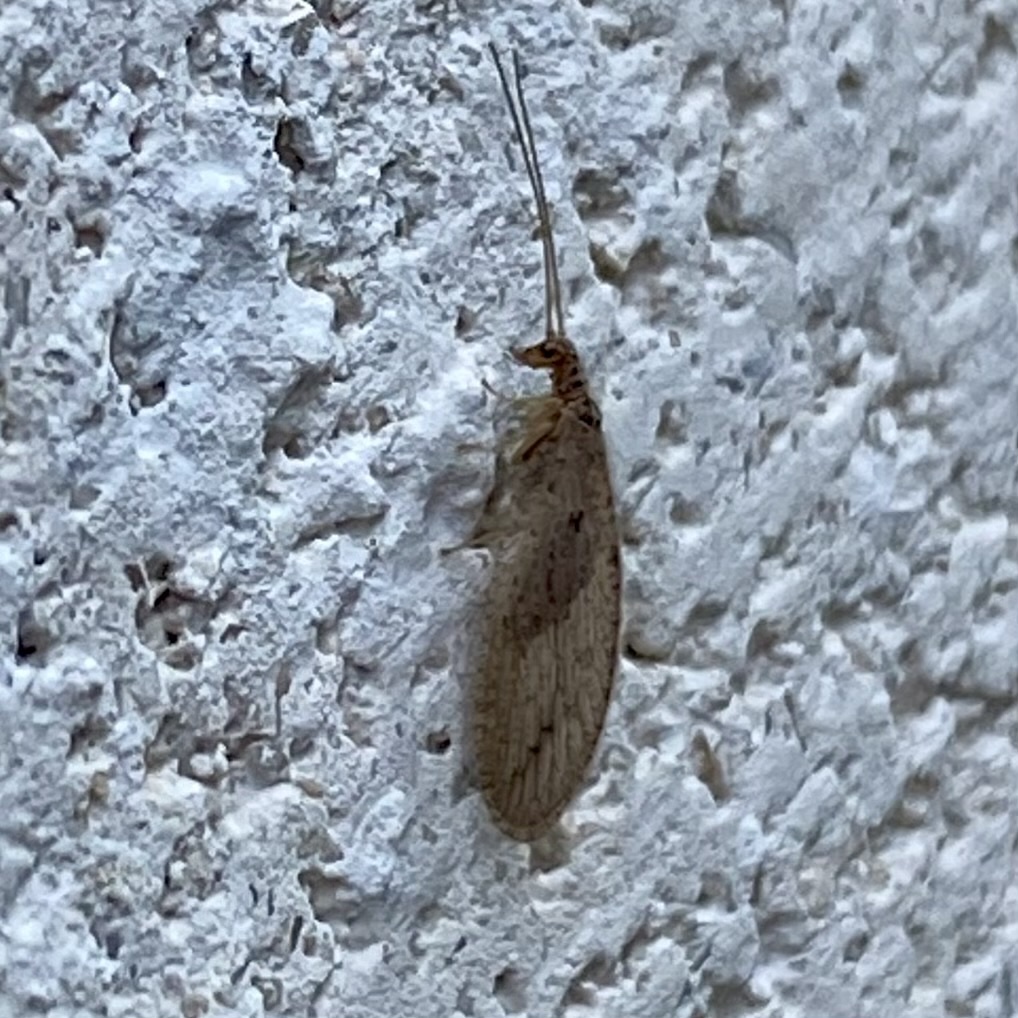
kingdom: Animalia
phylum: Arthropoda
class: Insecta
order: Neuroptera
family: Hemerobiidae
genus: Micromus
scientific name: Micromus subanticus
